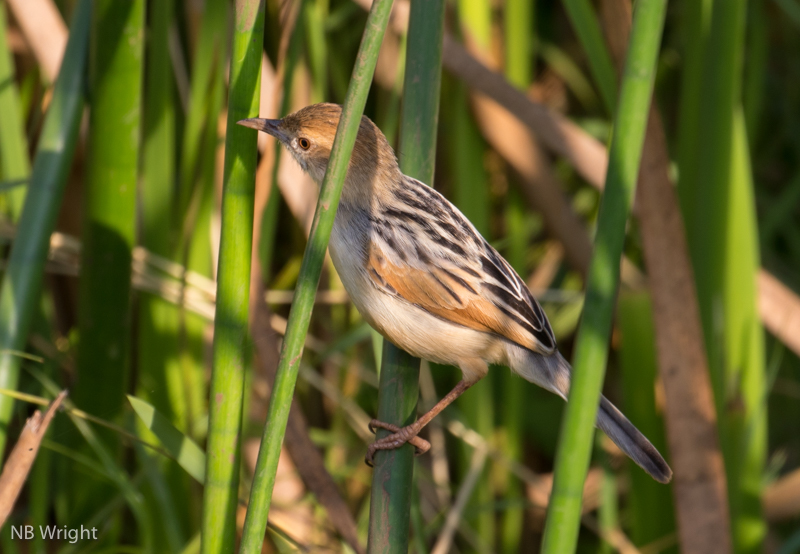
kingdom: Animalia
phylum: Chordata
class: Aves
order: Passeriformes
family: Cisticolidae
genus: Cisticola
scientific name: Cisticola marginatus
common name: Winding cisticola
